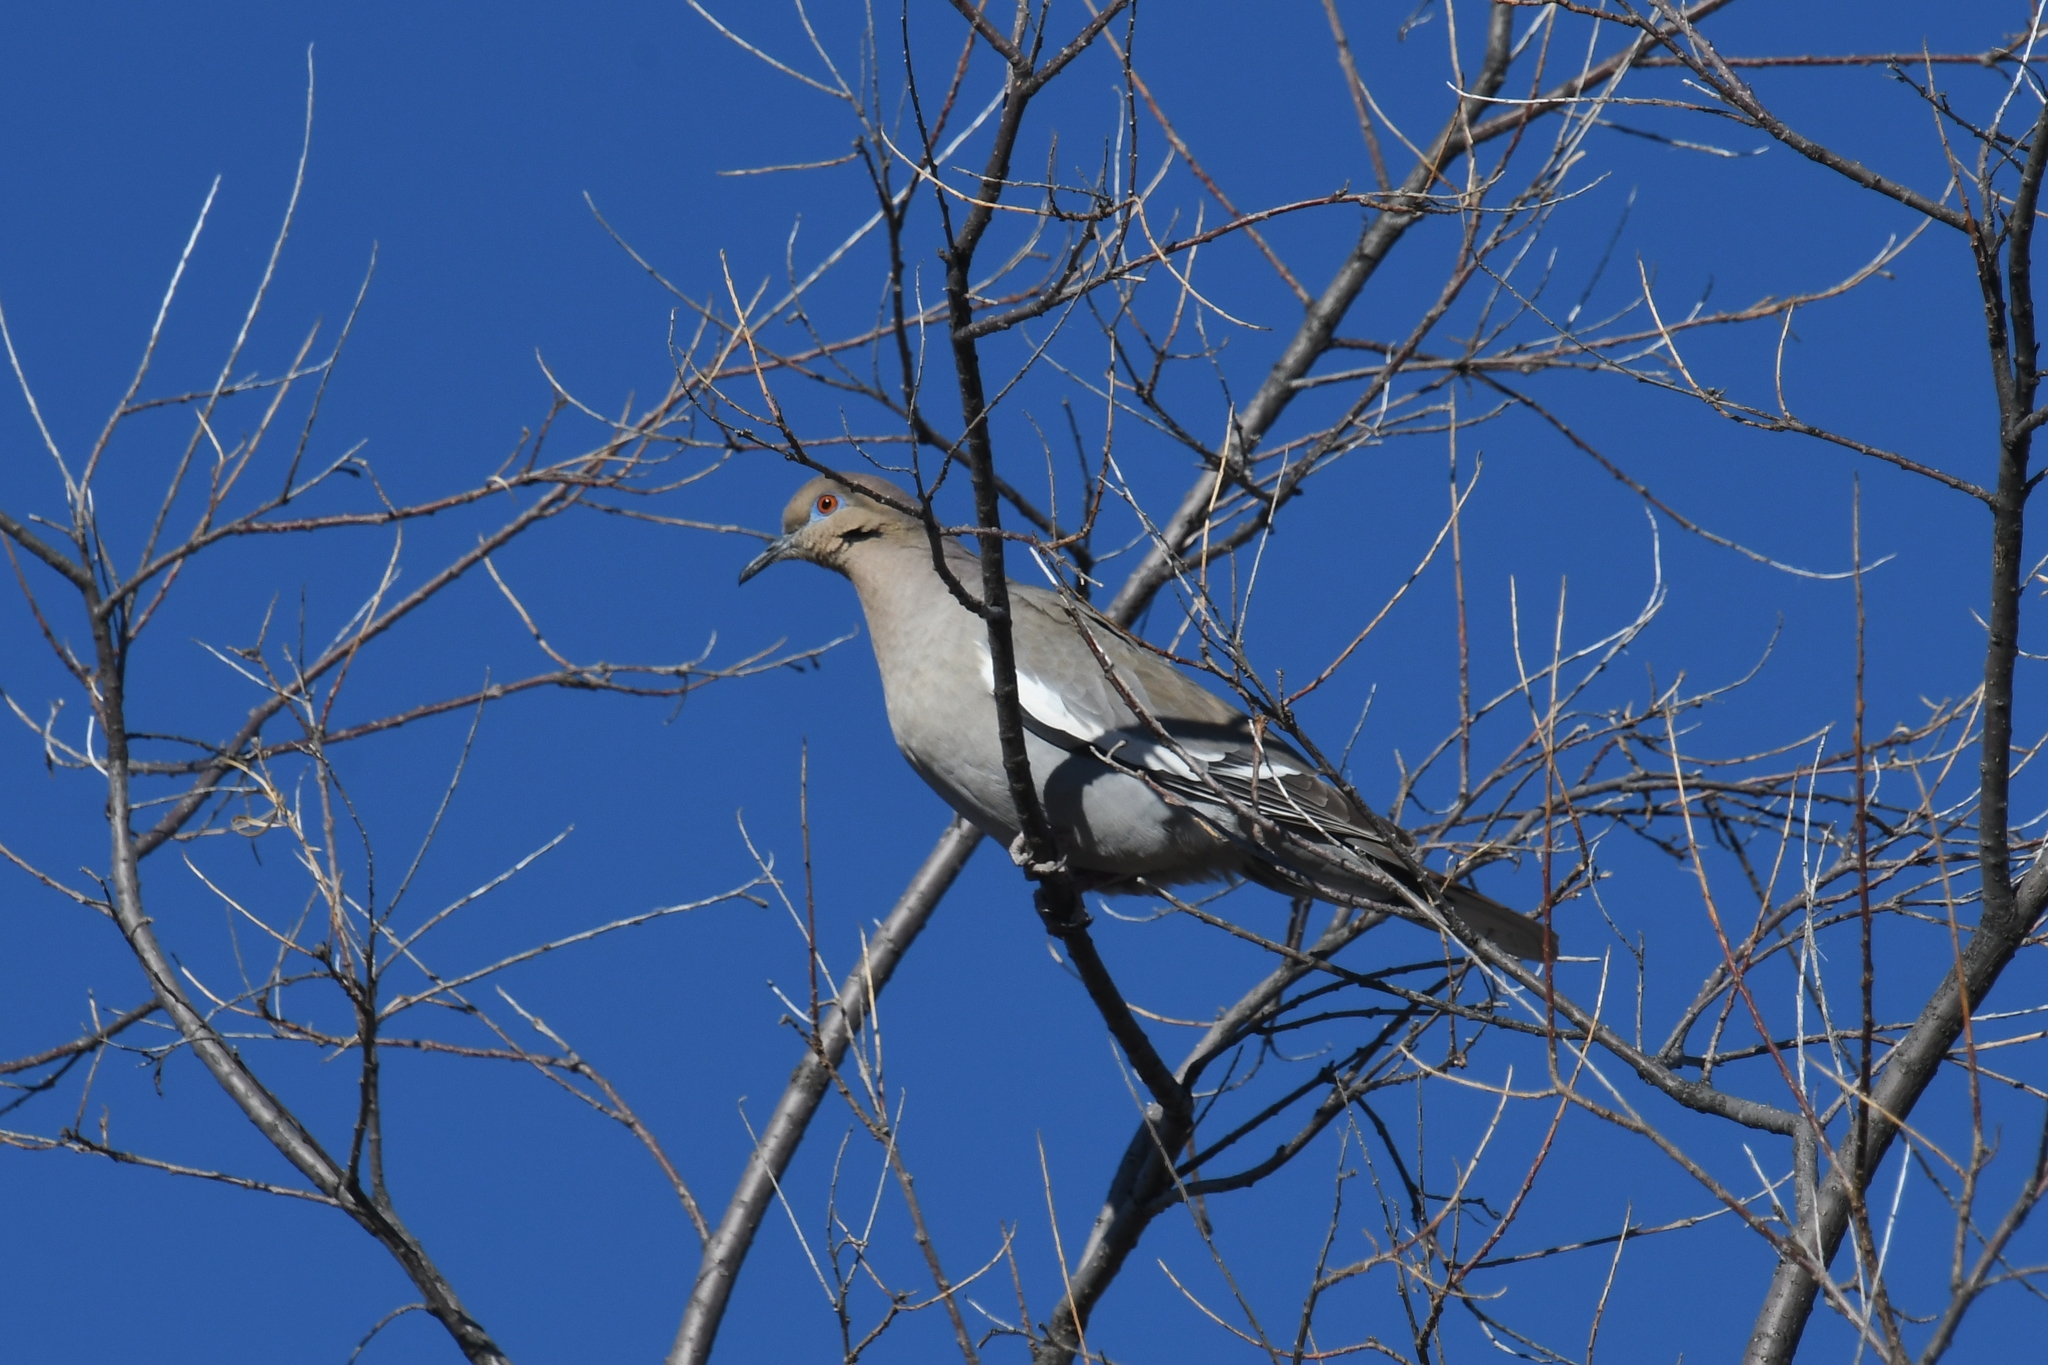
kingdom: Animalia
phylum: Chordata
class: Aves
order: Columbiformes
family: Columbidae
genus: Zenaida
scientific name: Zenaida asiatica
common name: White-winged dove
